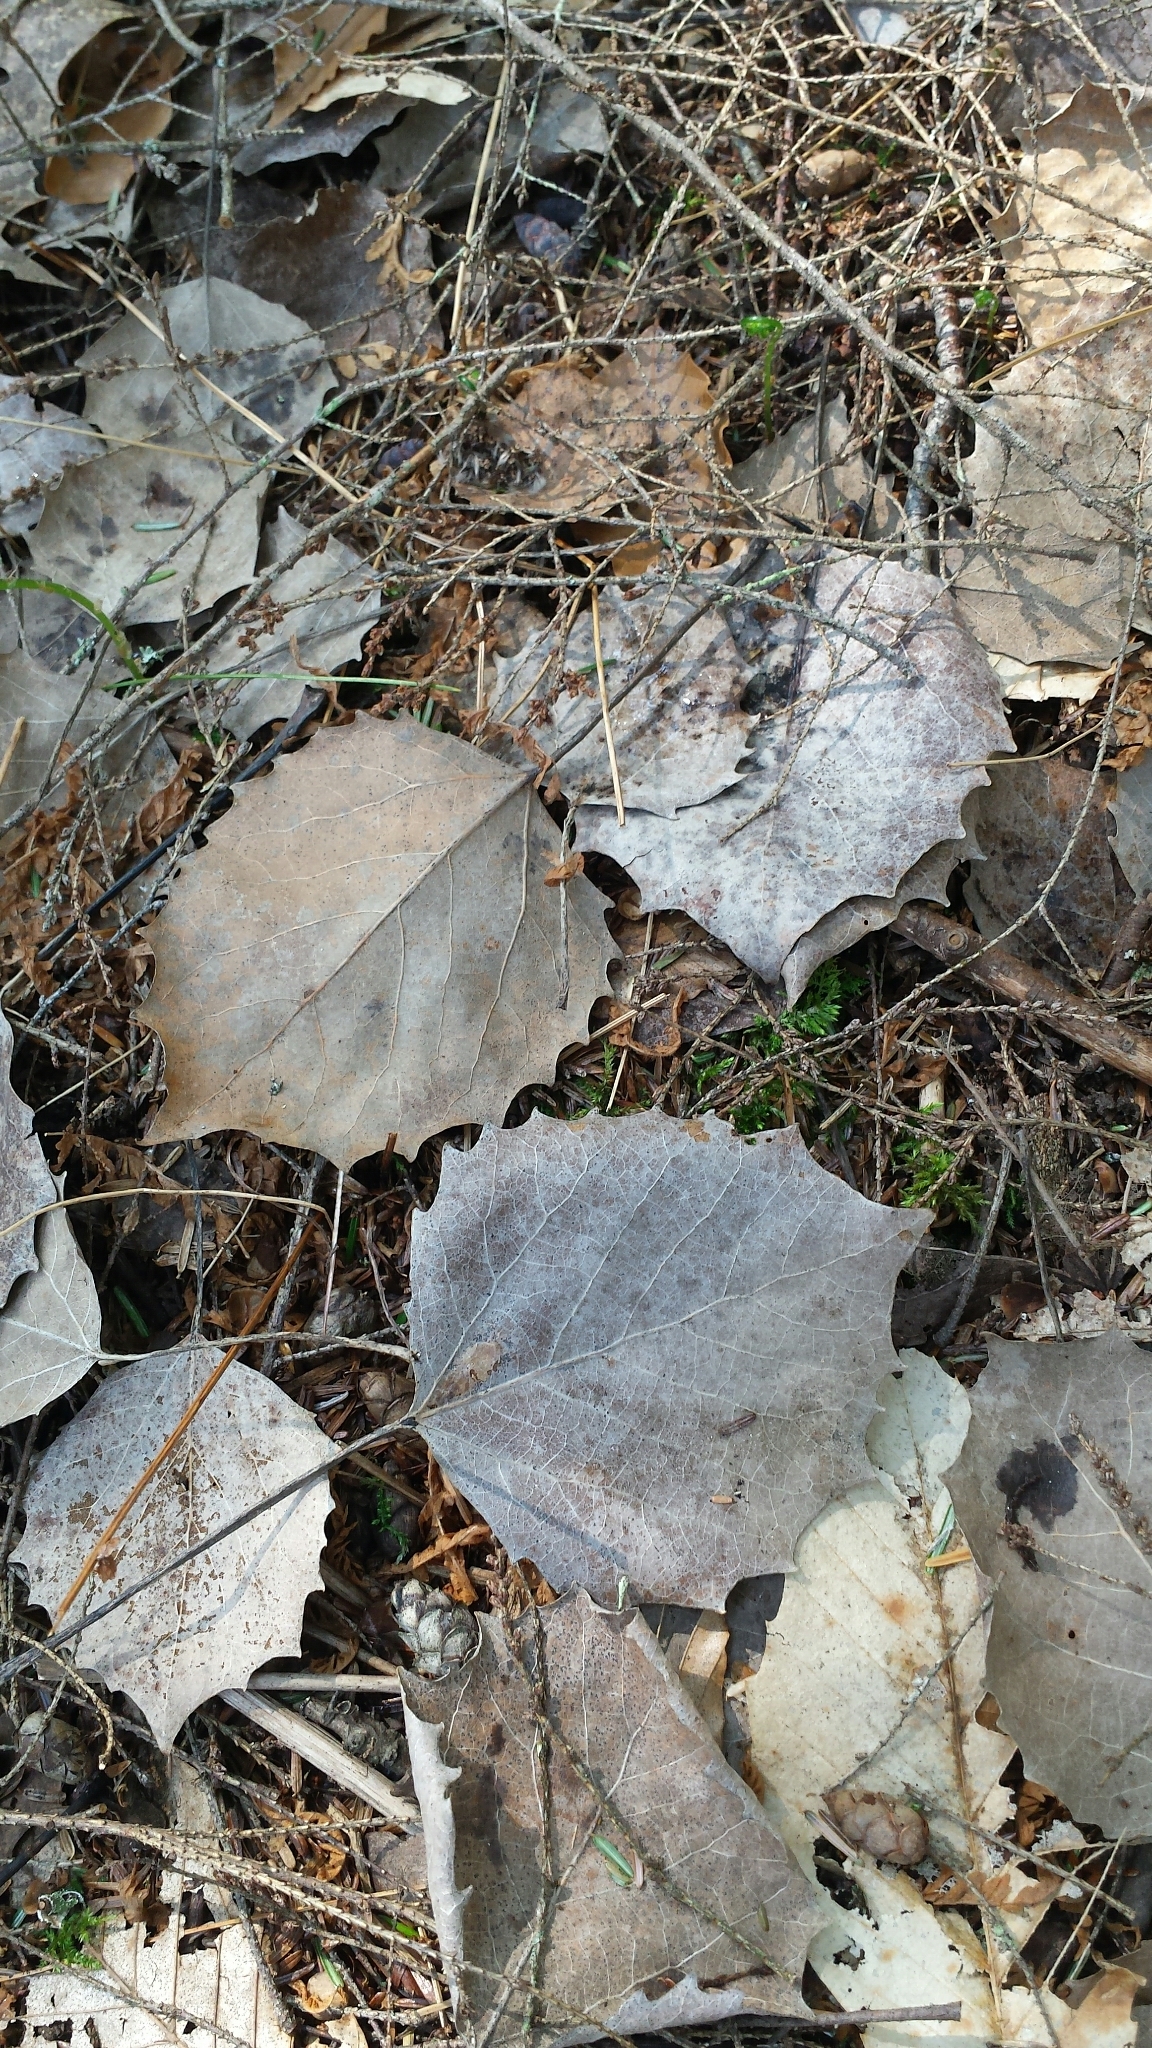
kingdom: Plantae
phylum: Tracheophyta
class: Magnoliopsida
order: Malpighiales
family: Salicaceae
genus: Populus
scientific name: Populus grandidentata
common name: Bigtooth aspen
